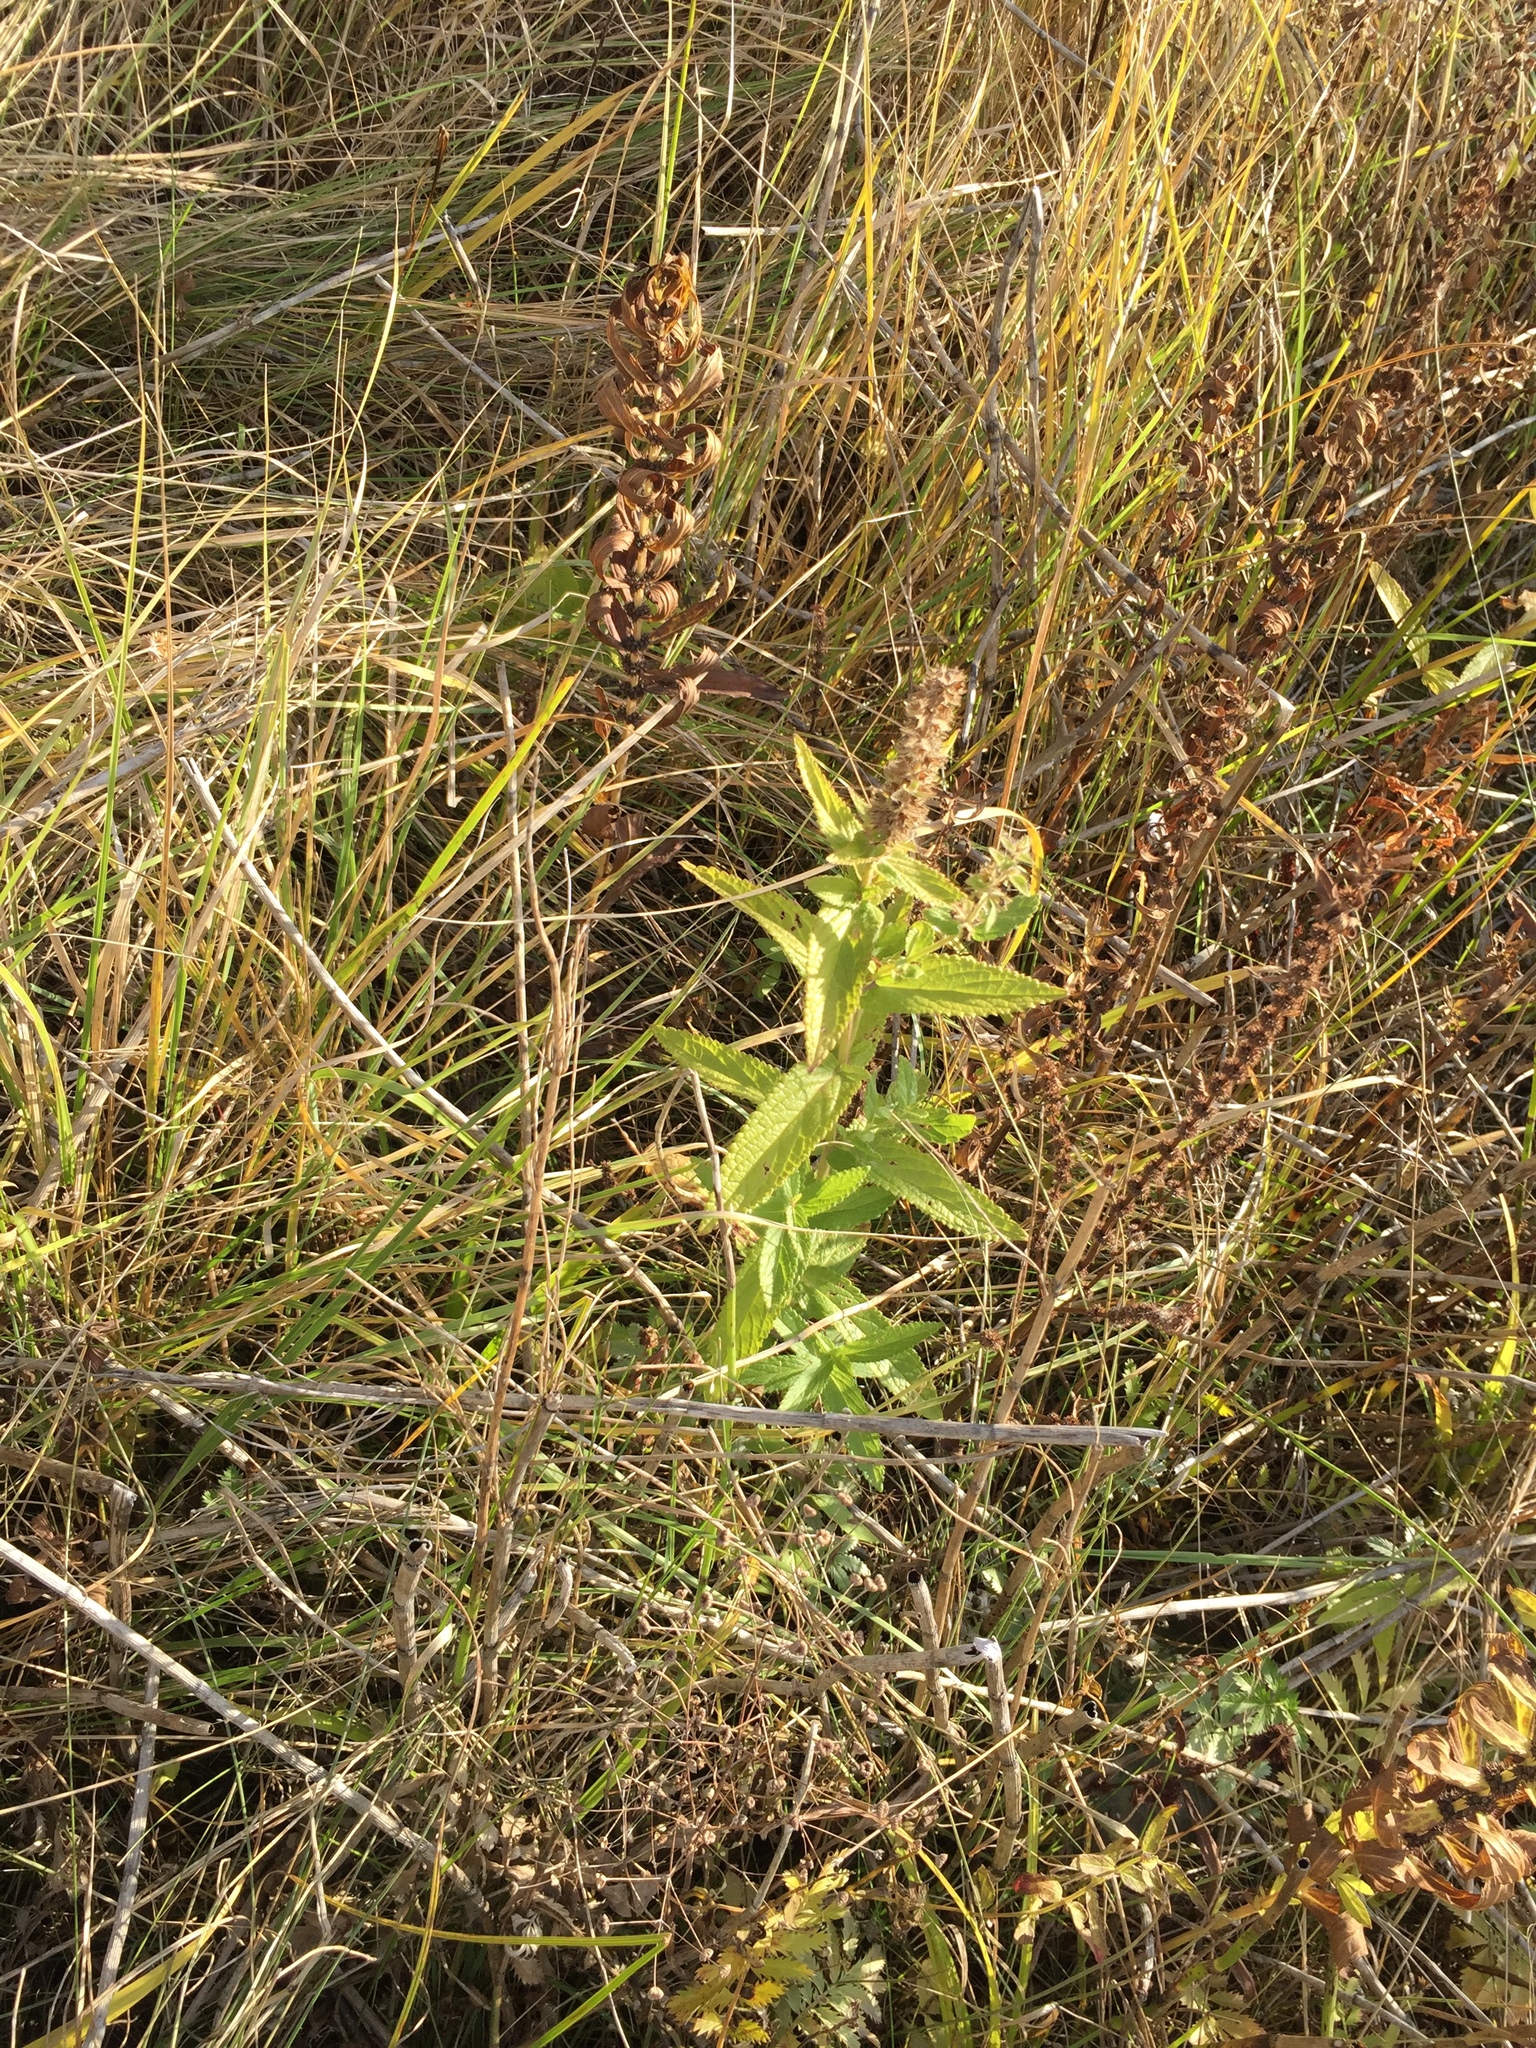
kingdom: Plantae
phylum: Tracheophyta
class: Magnoliopsida
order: Lamiales
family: Lamiaceae
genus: Stachys
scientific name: Stachys palustris
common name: Marsh woundwort
